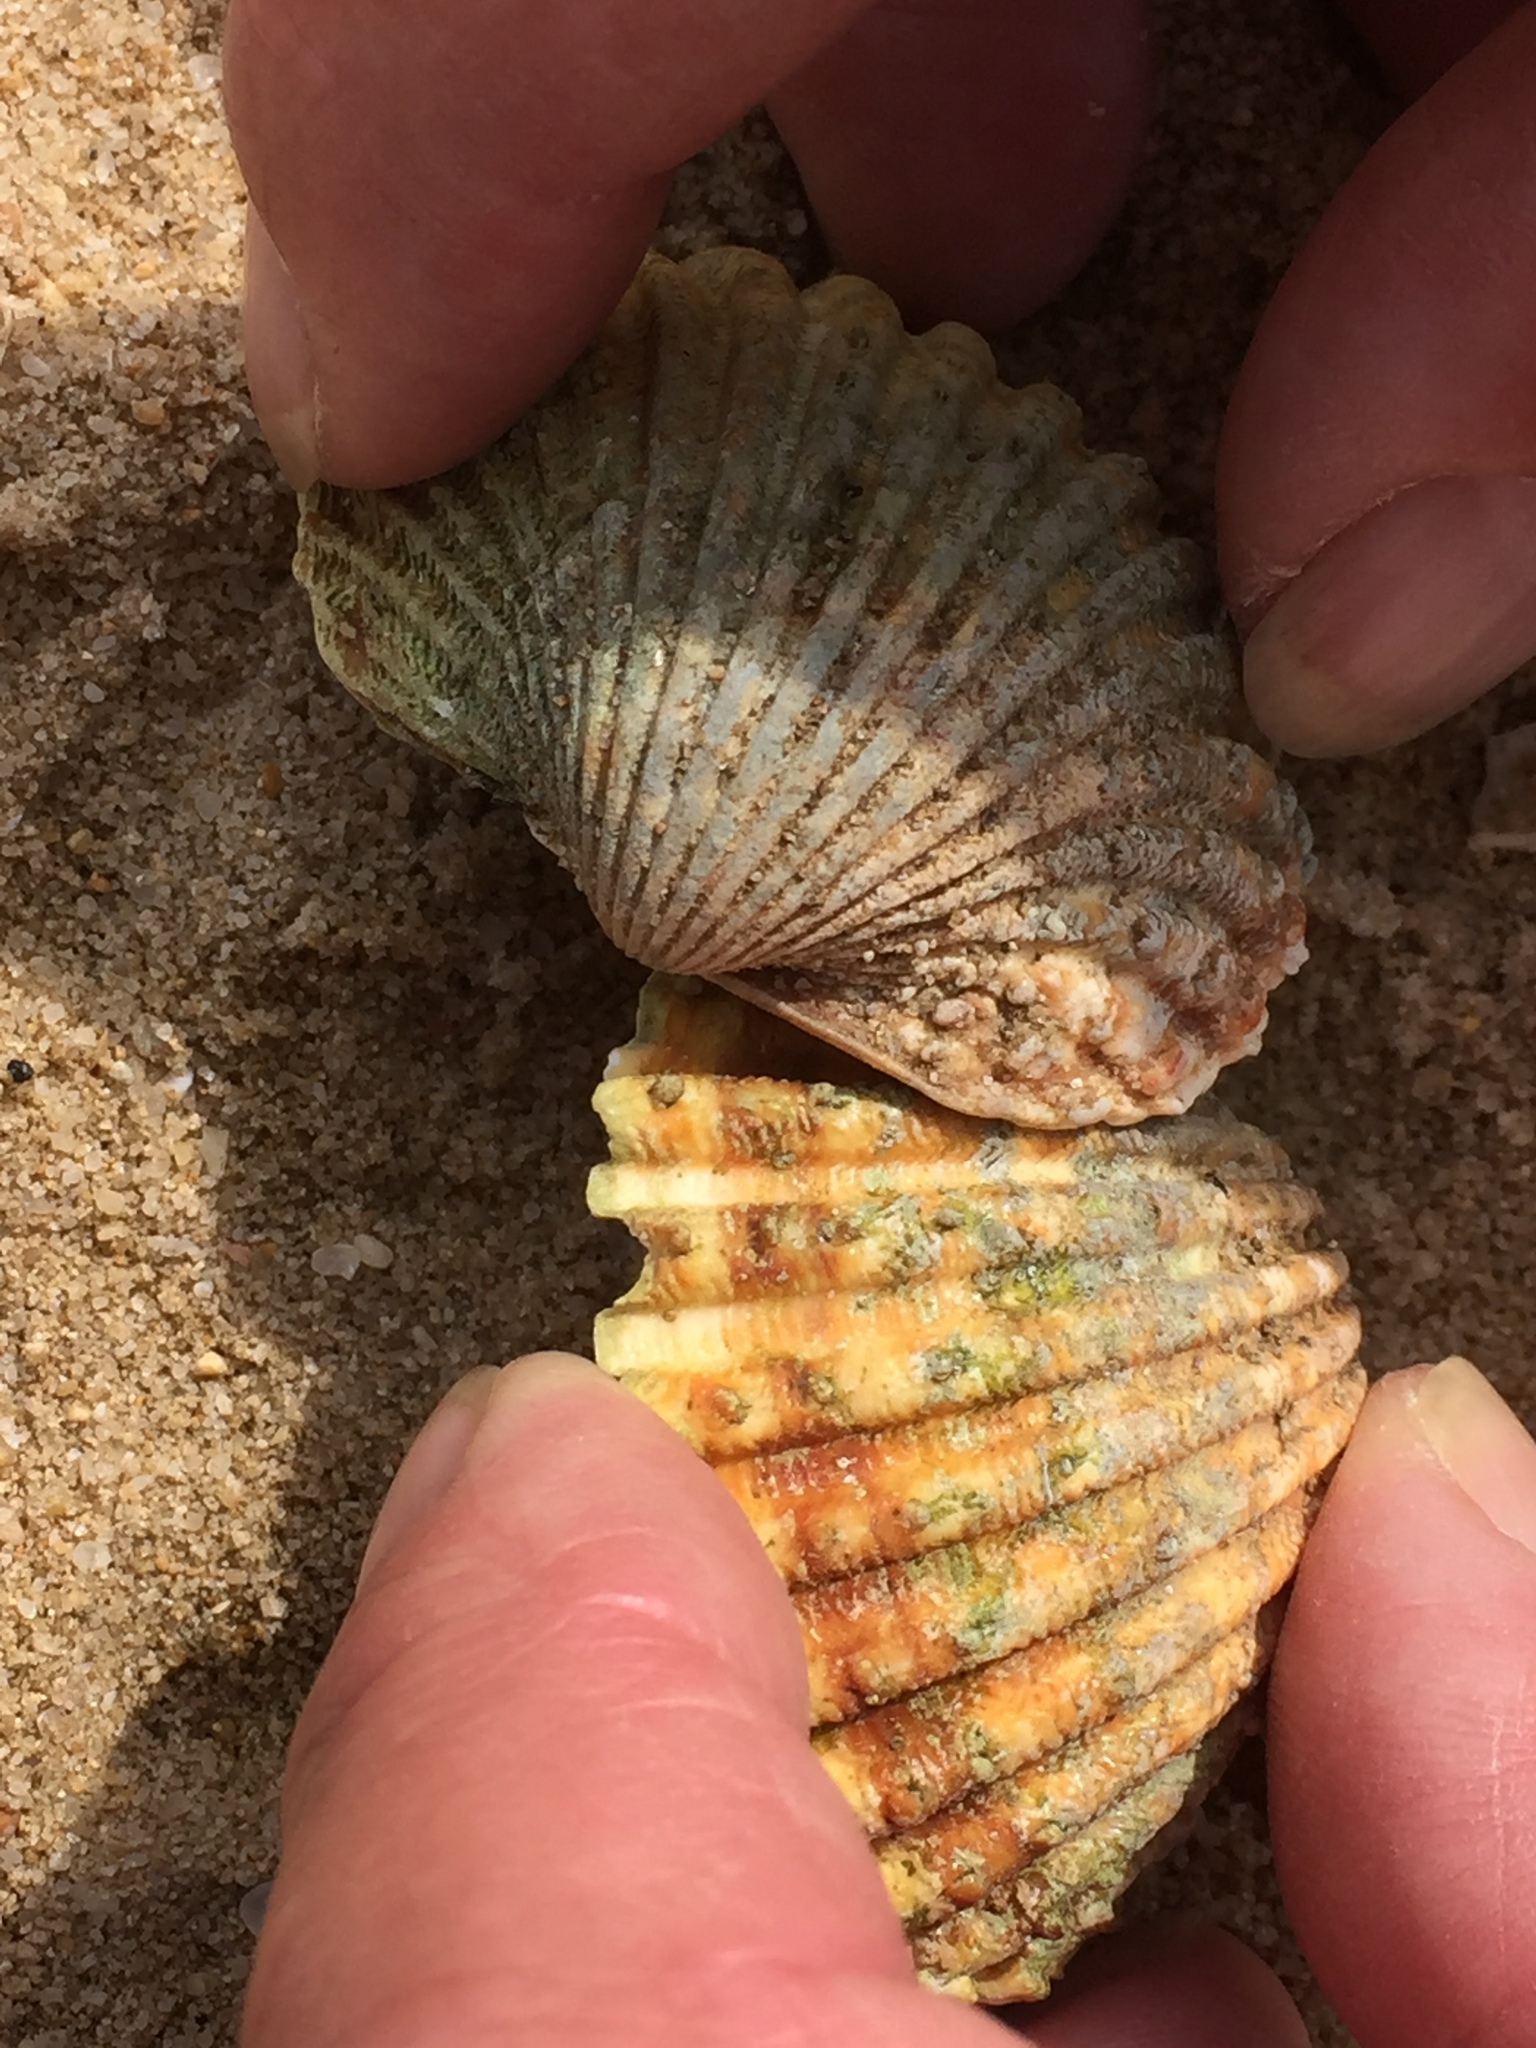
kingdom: Animalia
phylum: Mollusca
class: Bivalvia
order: Cardiida
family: Cardiidae
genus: Acanthocardia
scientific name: Acanthocardia tuberculata
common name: Rough cockle
